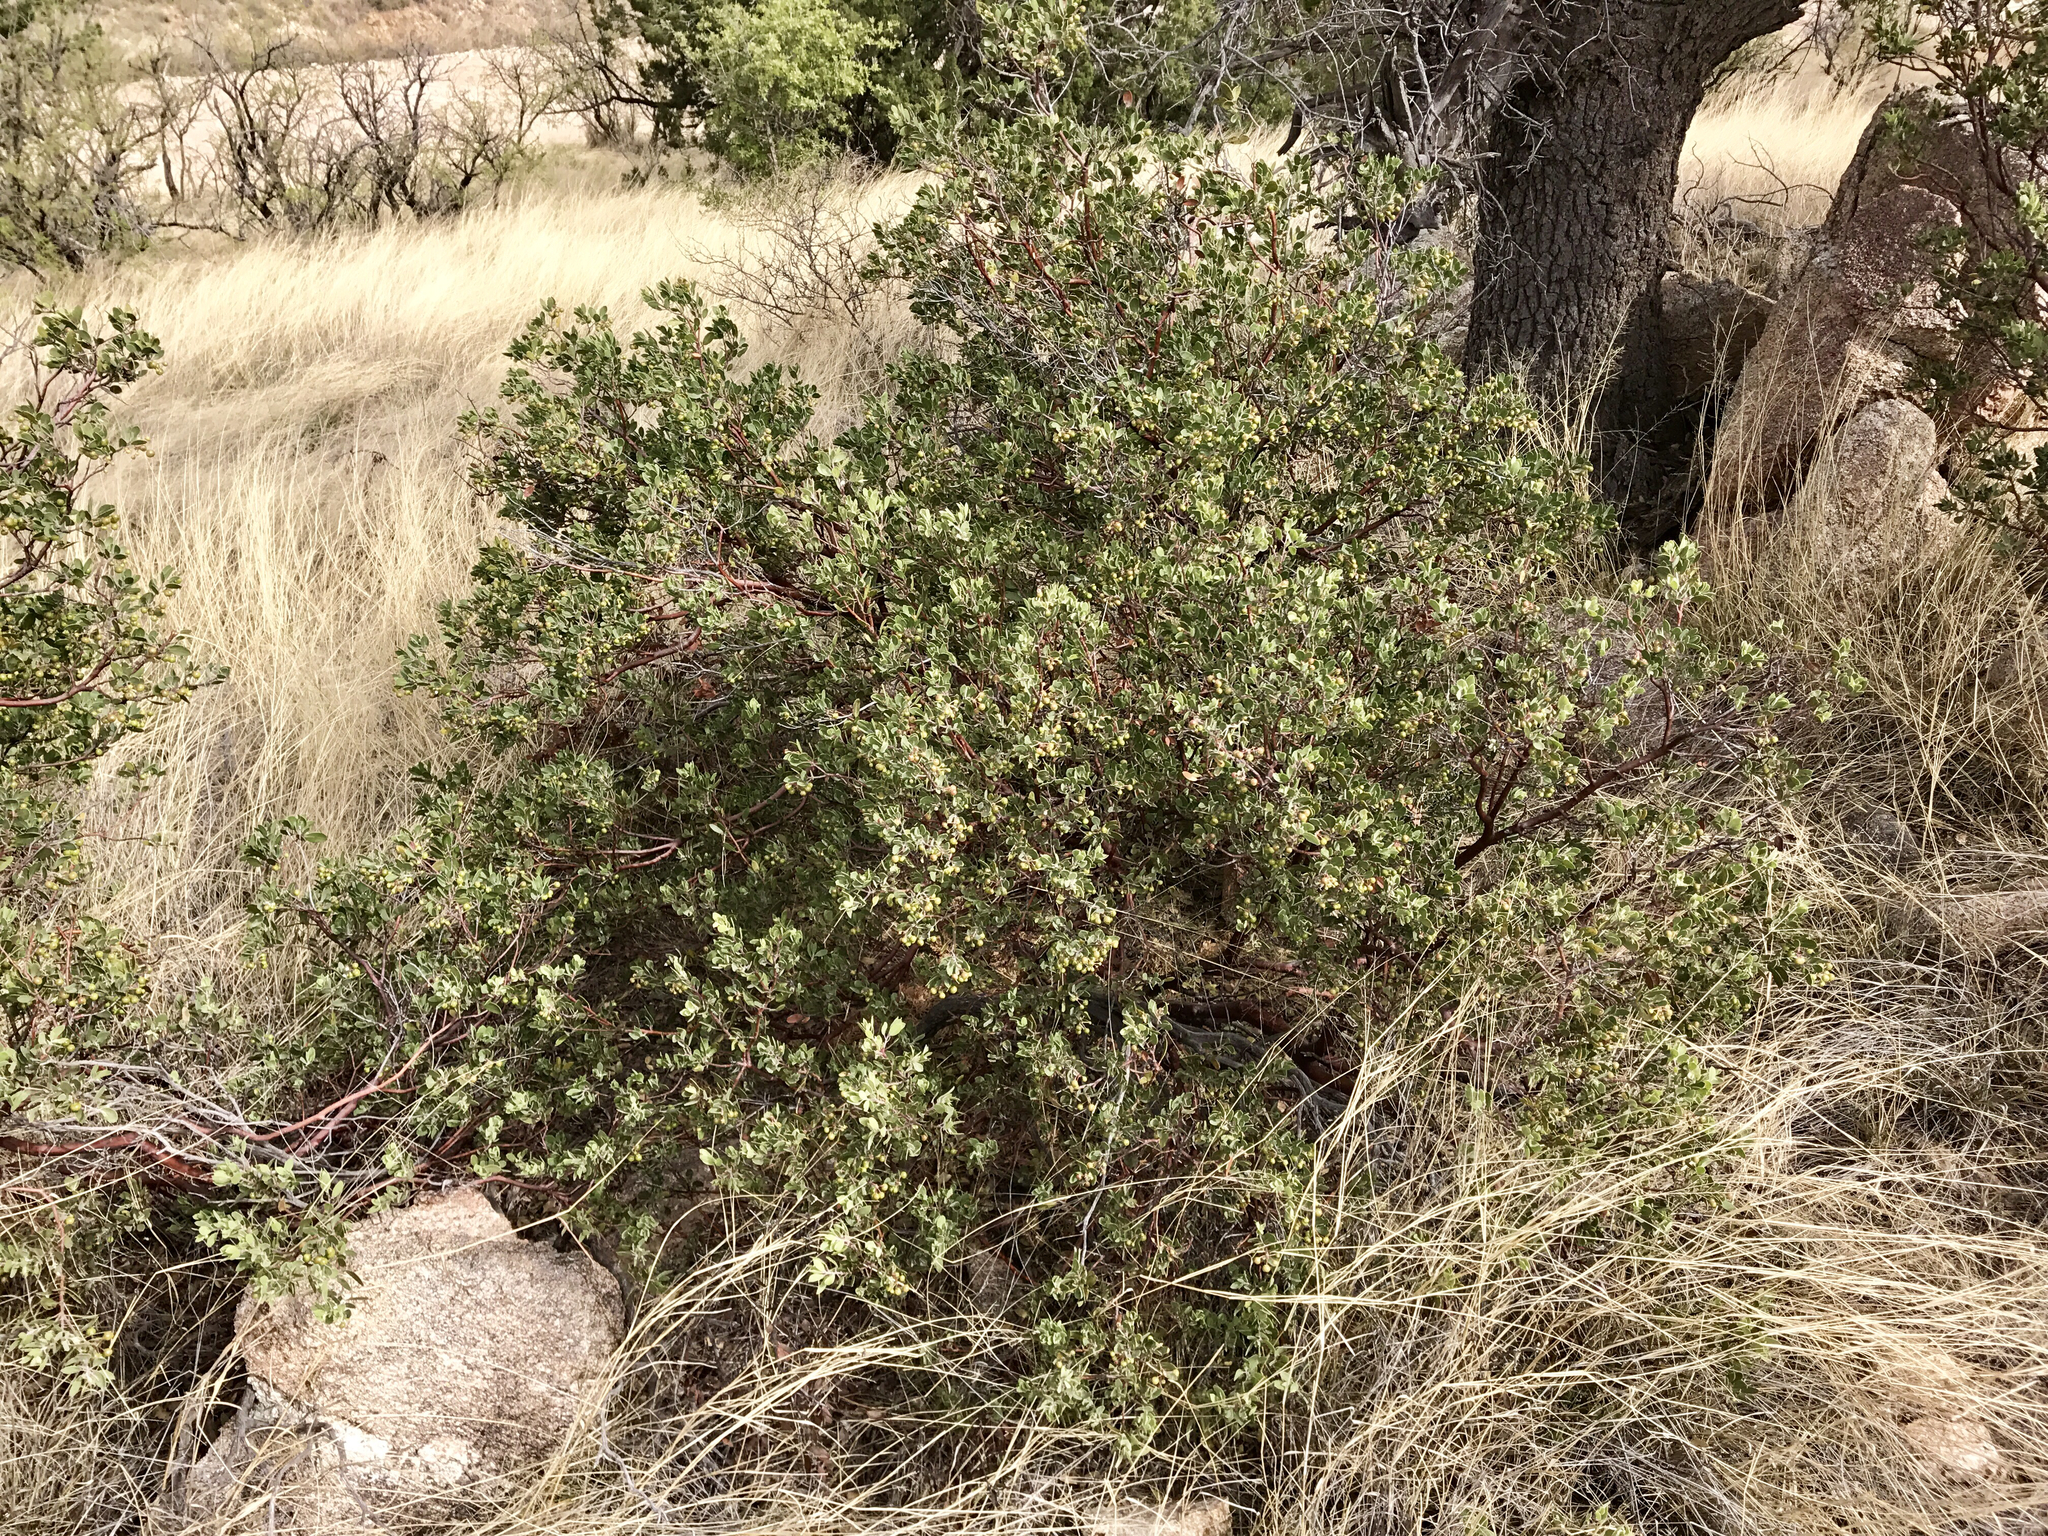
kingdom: Plantae
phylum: Tracheophyta
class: Magnoliopsida
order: Ericales
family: Ericaceae
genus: Arctostaphylos
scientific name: Arctostaphylos pungens
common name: Mexican manzanita
